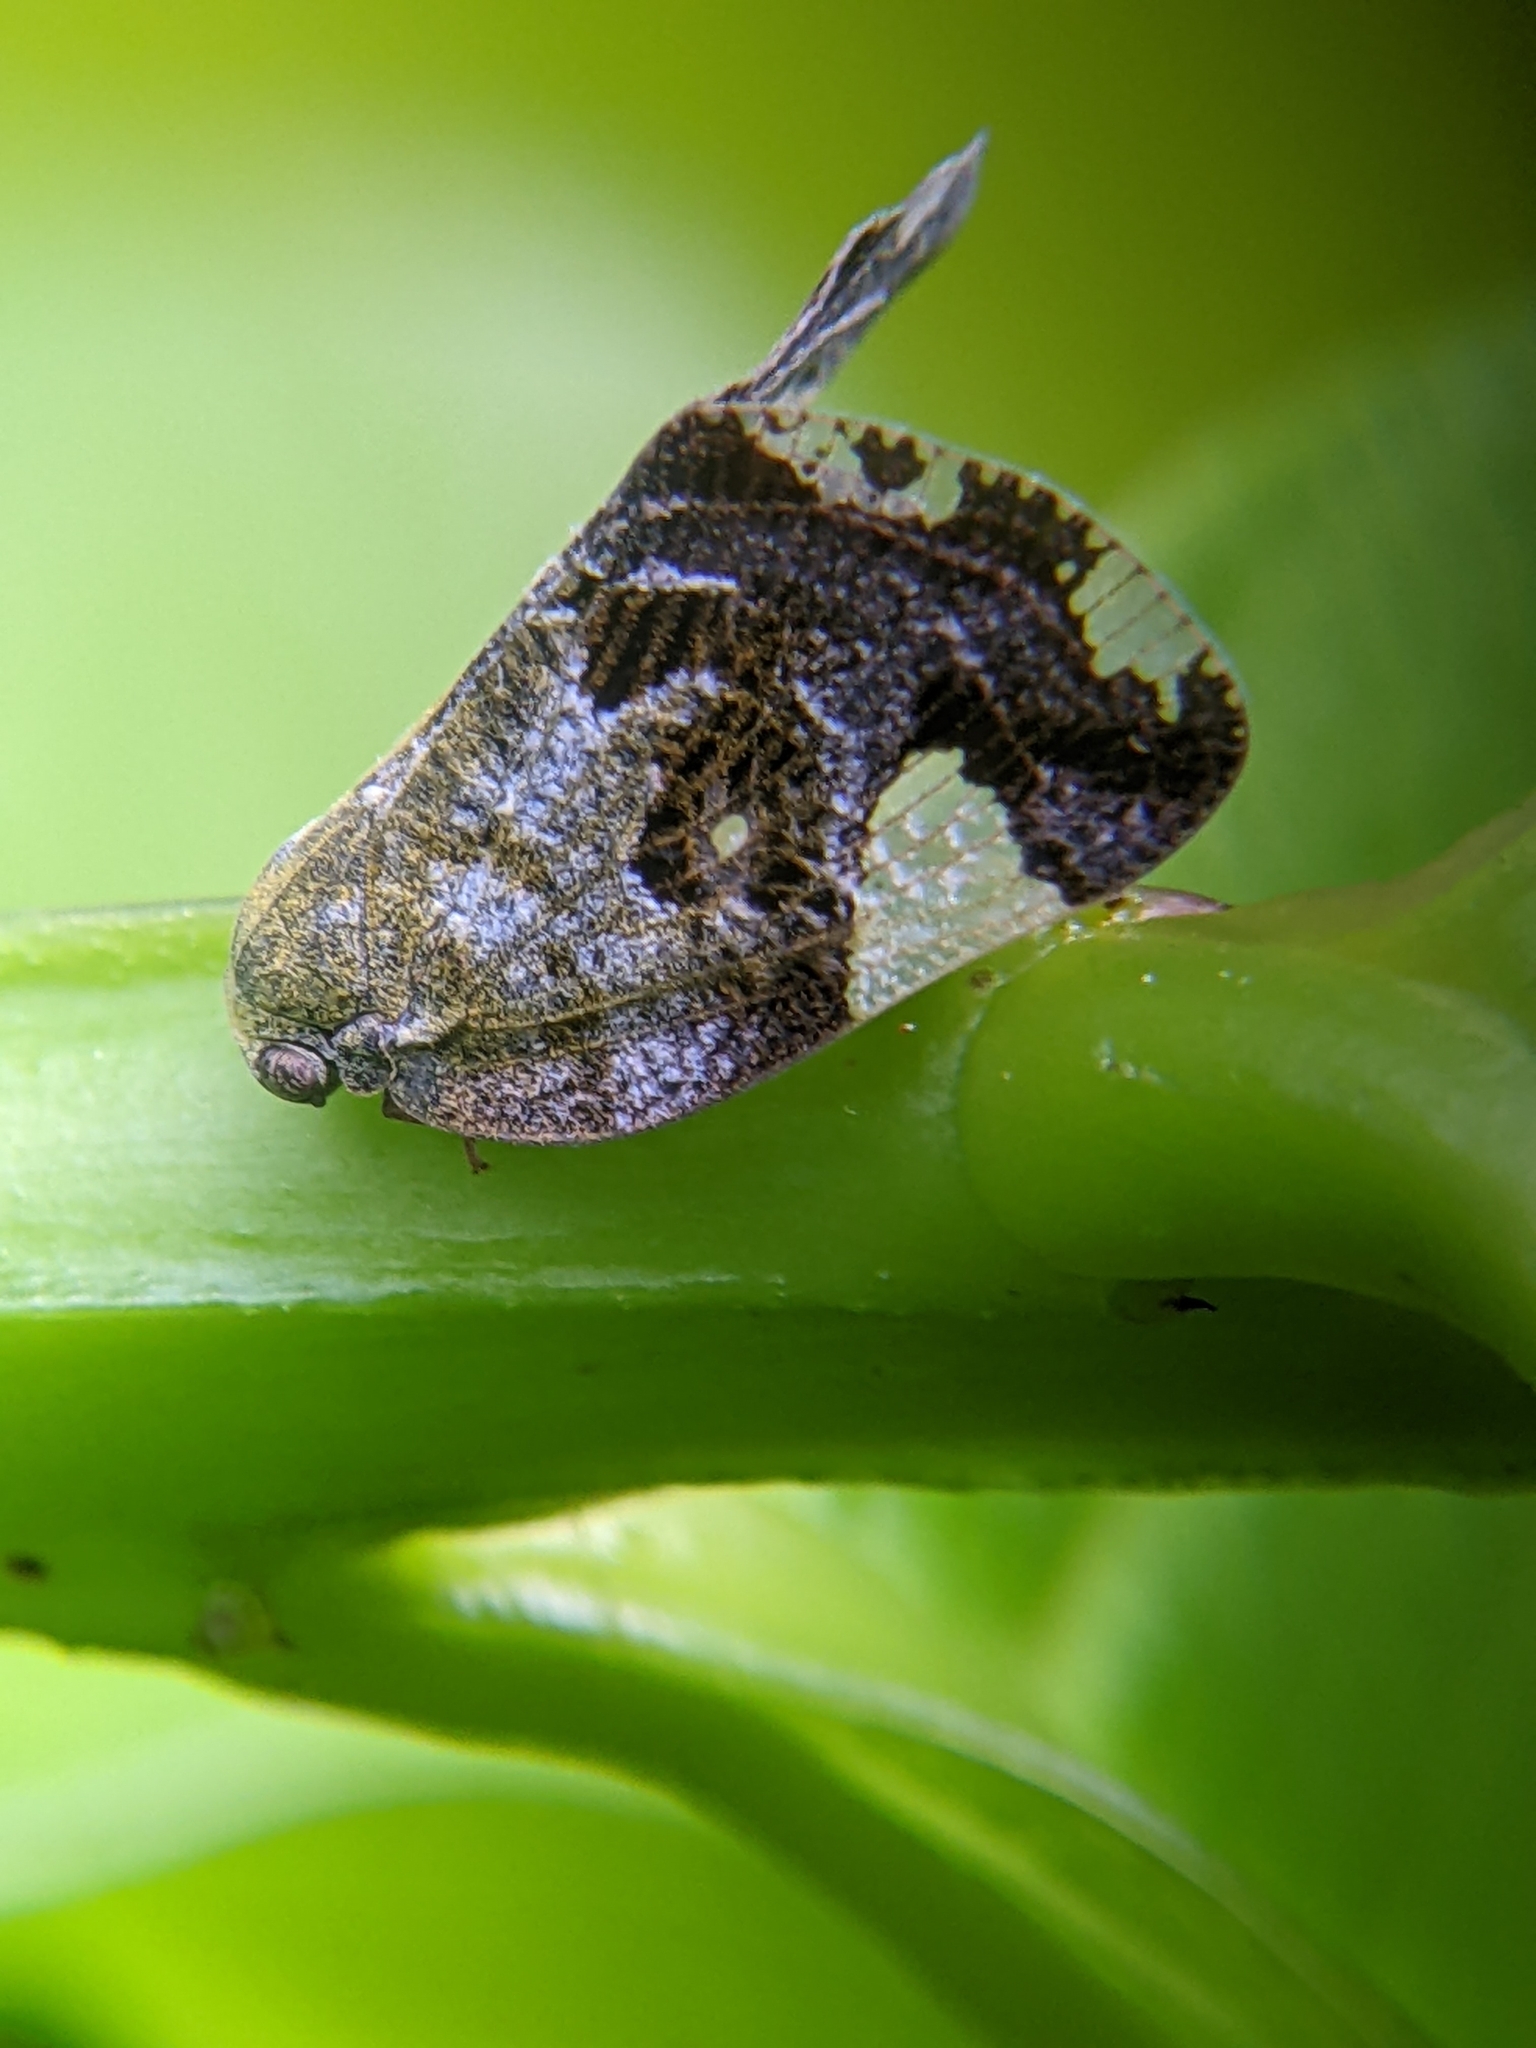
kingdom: Animalia
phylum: Arthropoda
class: Insecta
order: Hemiptera
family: Ricaniidae
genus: Ricania
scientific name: Ricania speculum
